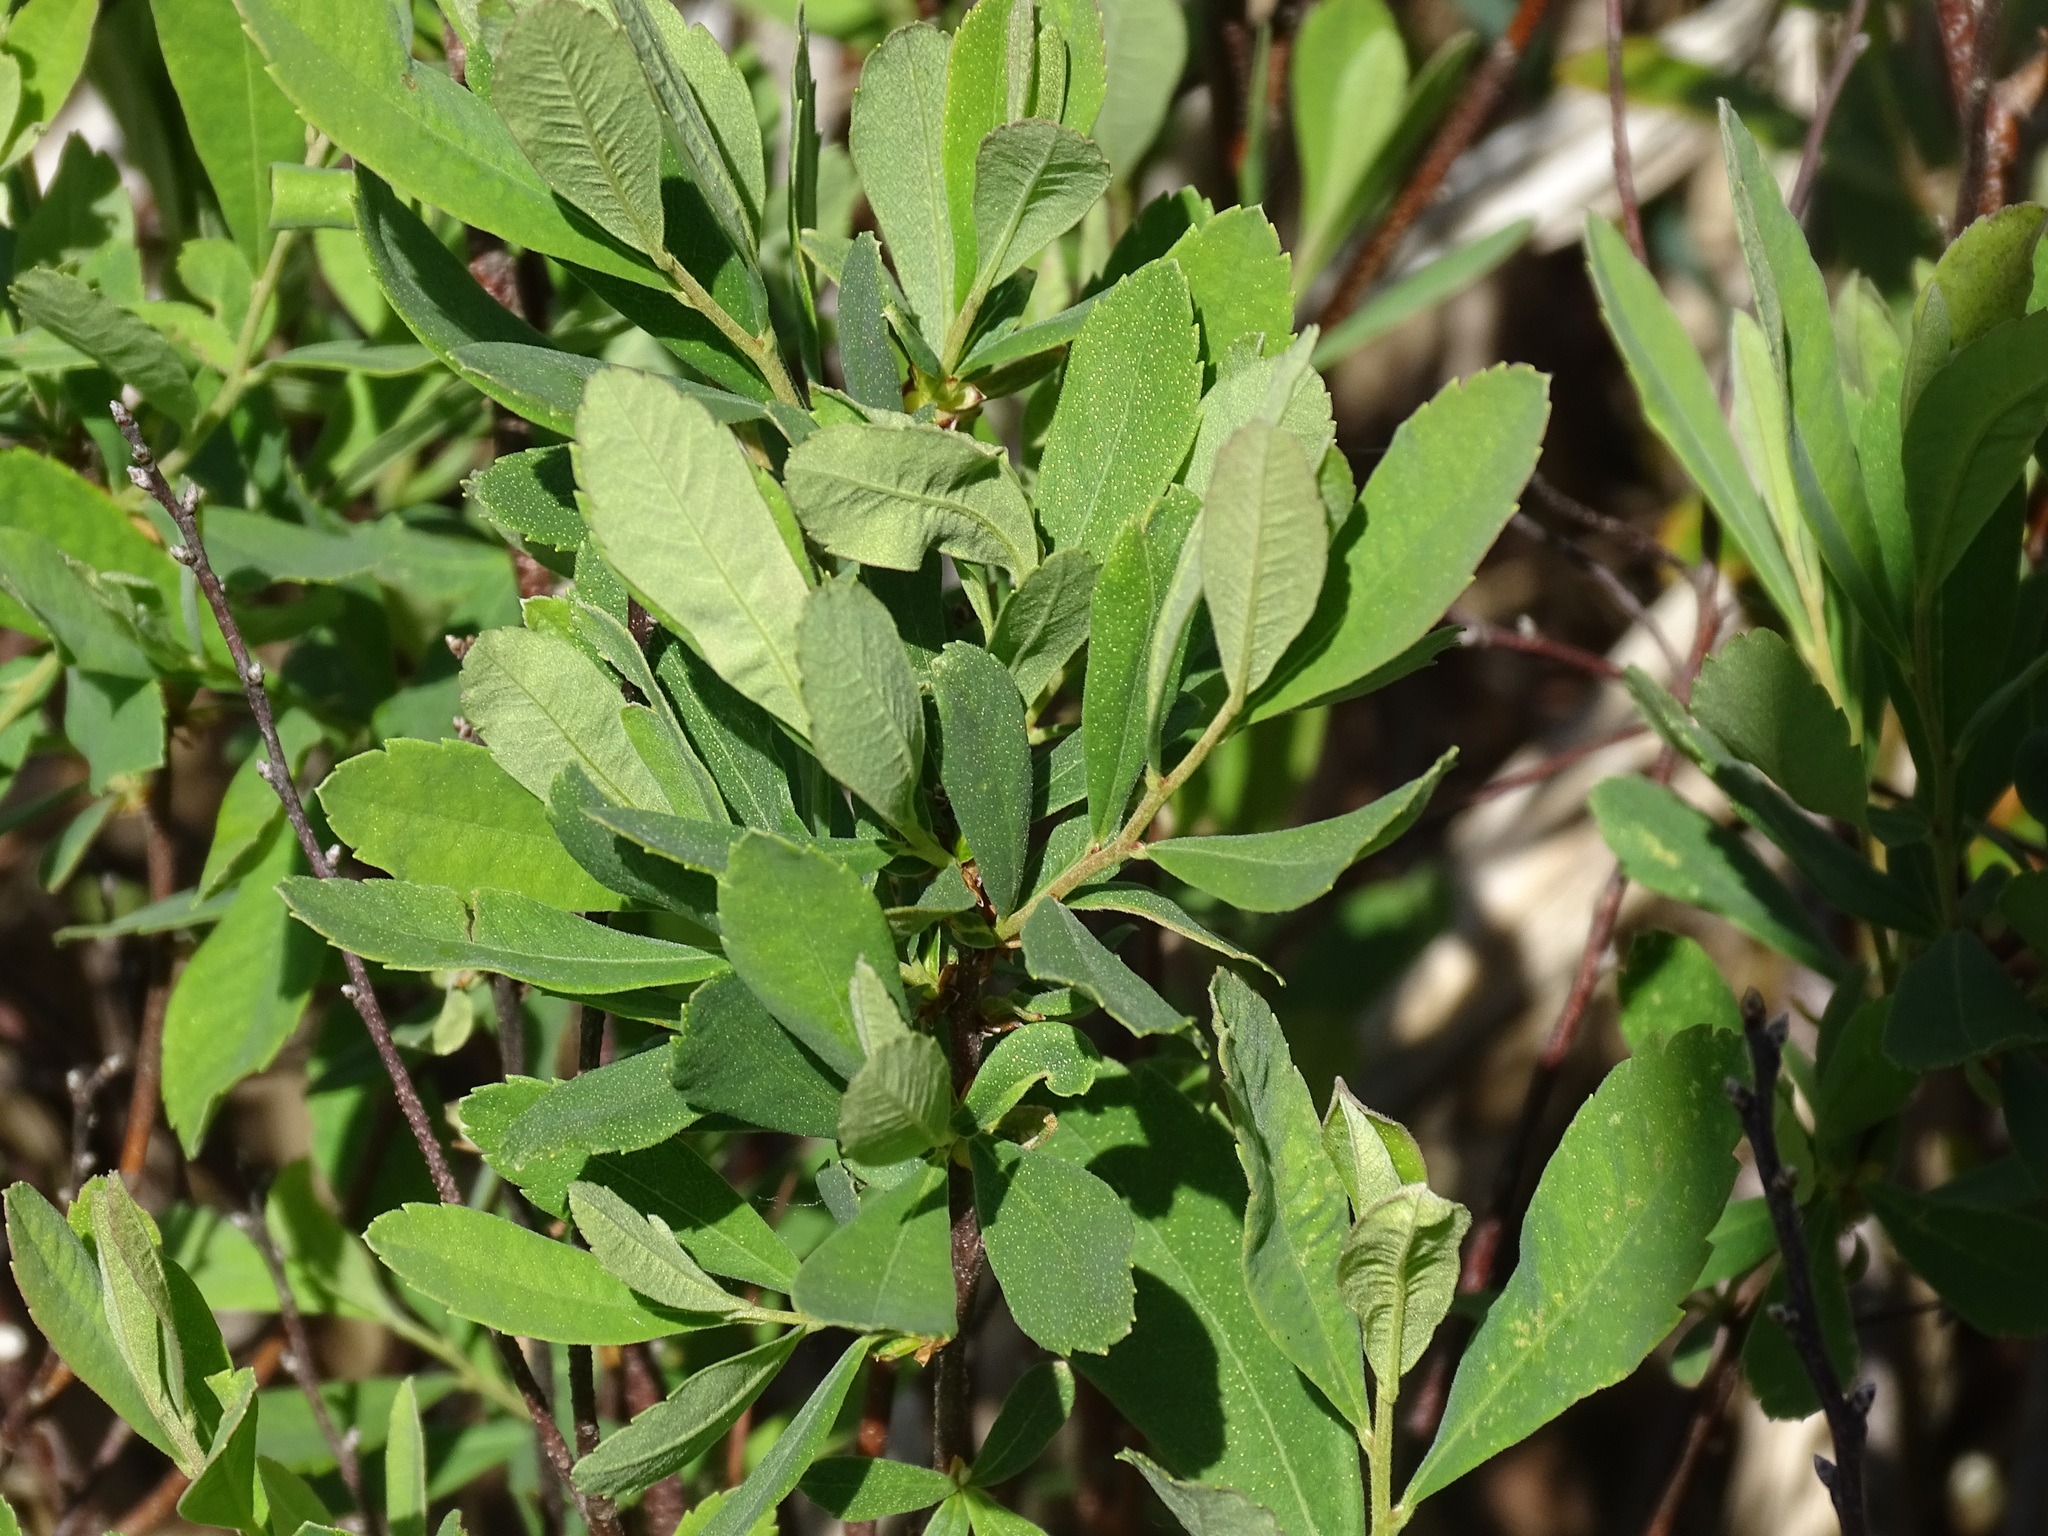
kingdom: Plantae
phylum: Tracheophyta
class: Magnoliopsida
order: Fagales
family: Myricaceae
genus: Myrica
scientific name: Myrica gale
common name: Sweet gale
